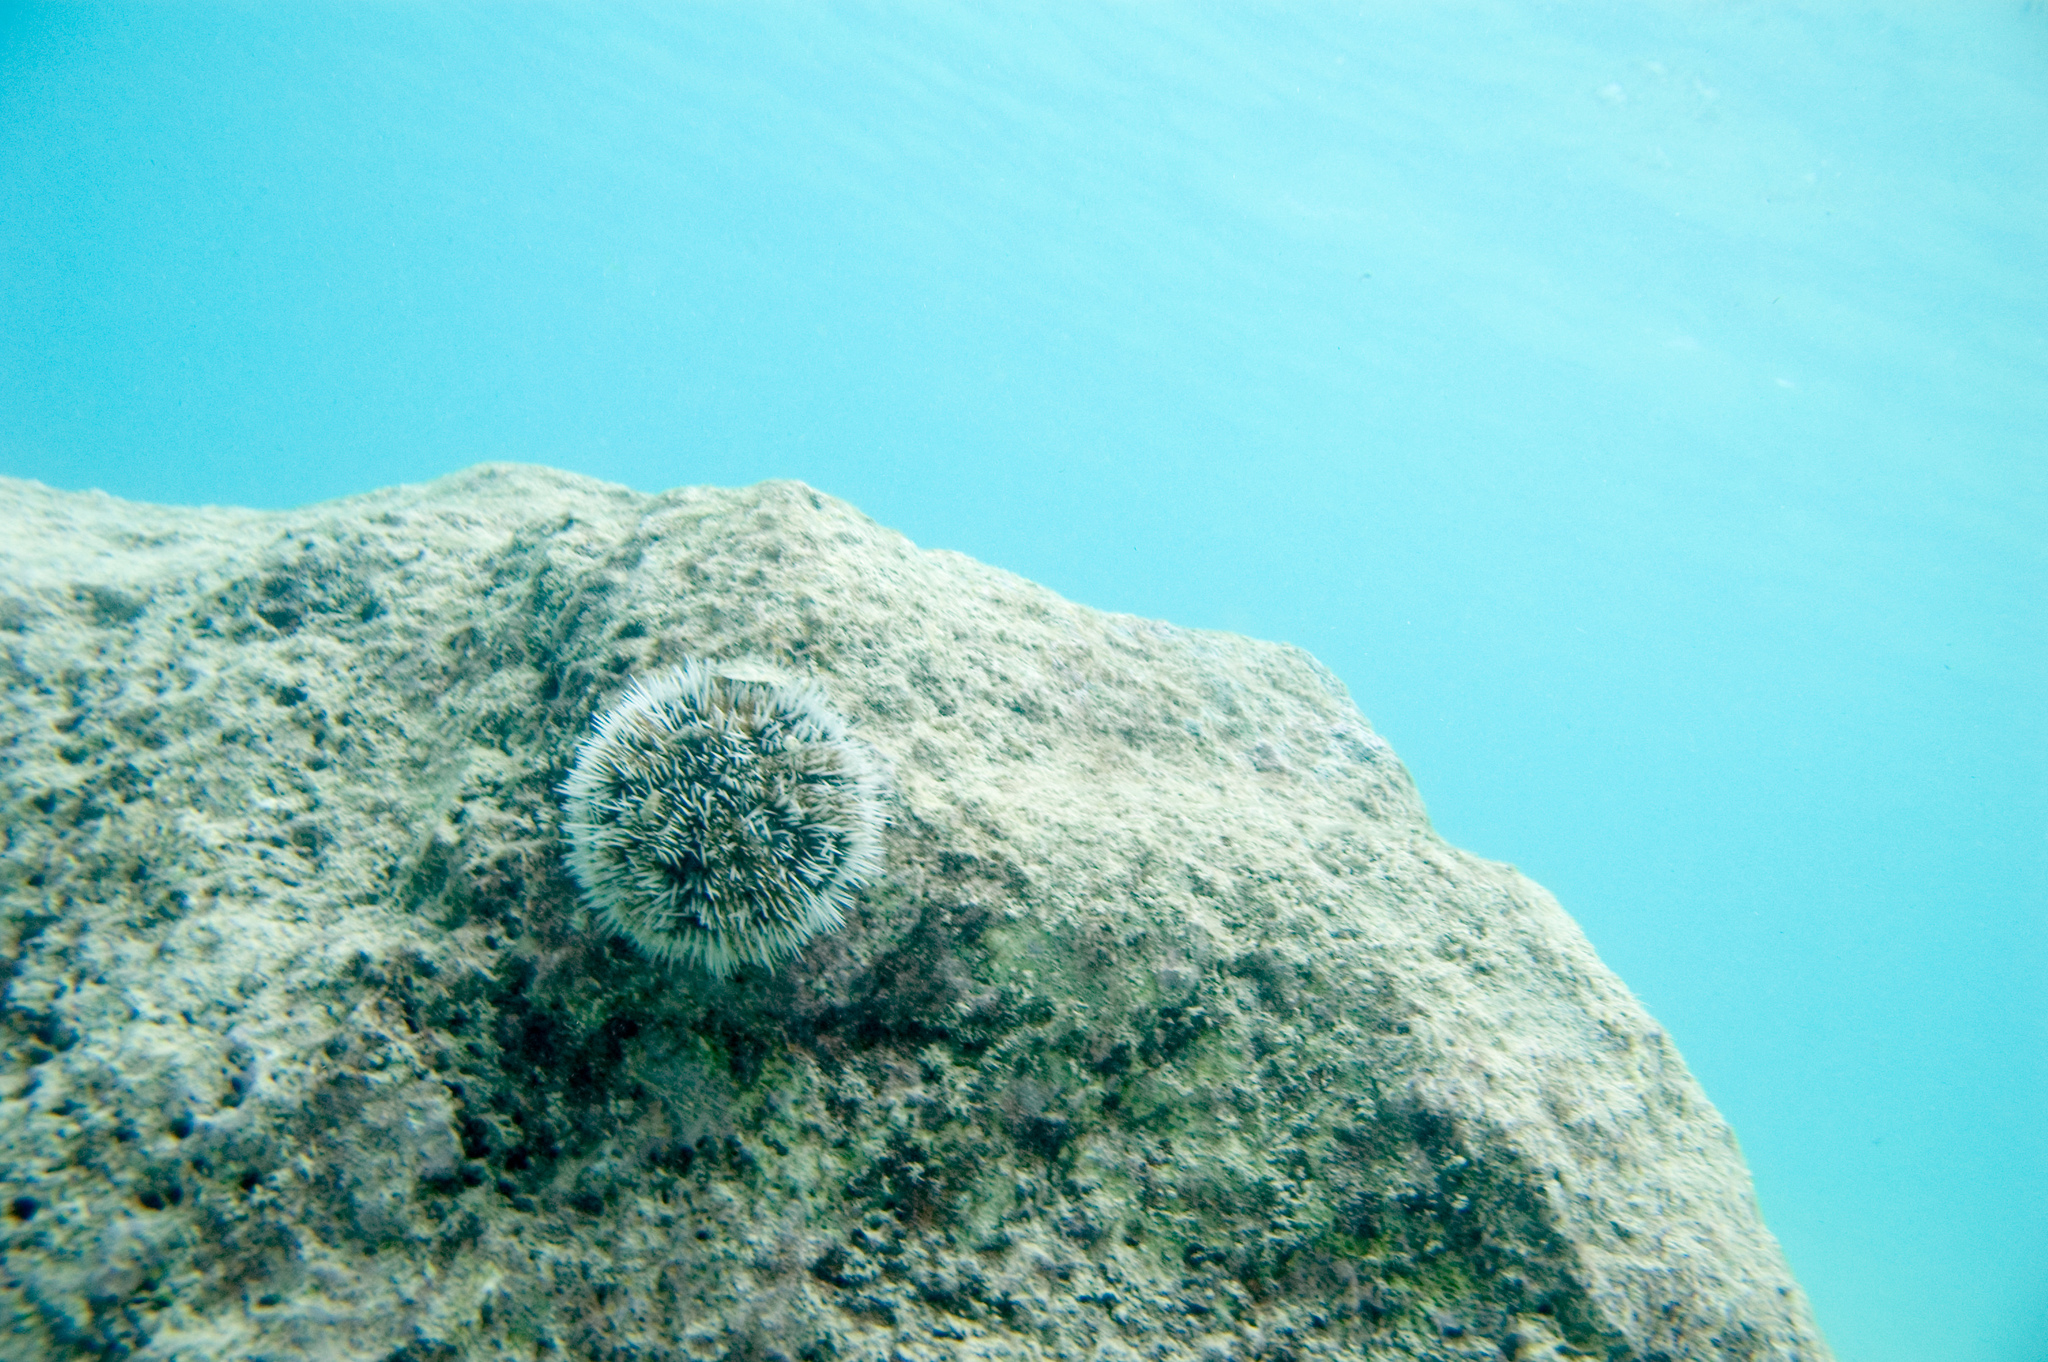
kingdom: Animalia
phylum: Echinodermata
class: Echinoidea
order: Camarodonta
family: Toxopneustidae
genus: Tripneustes
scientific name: Tripneustes ventricosus
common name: West indian sea egg
